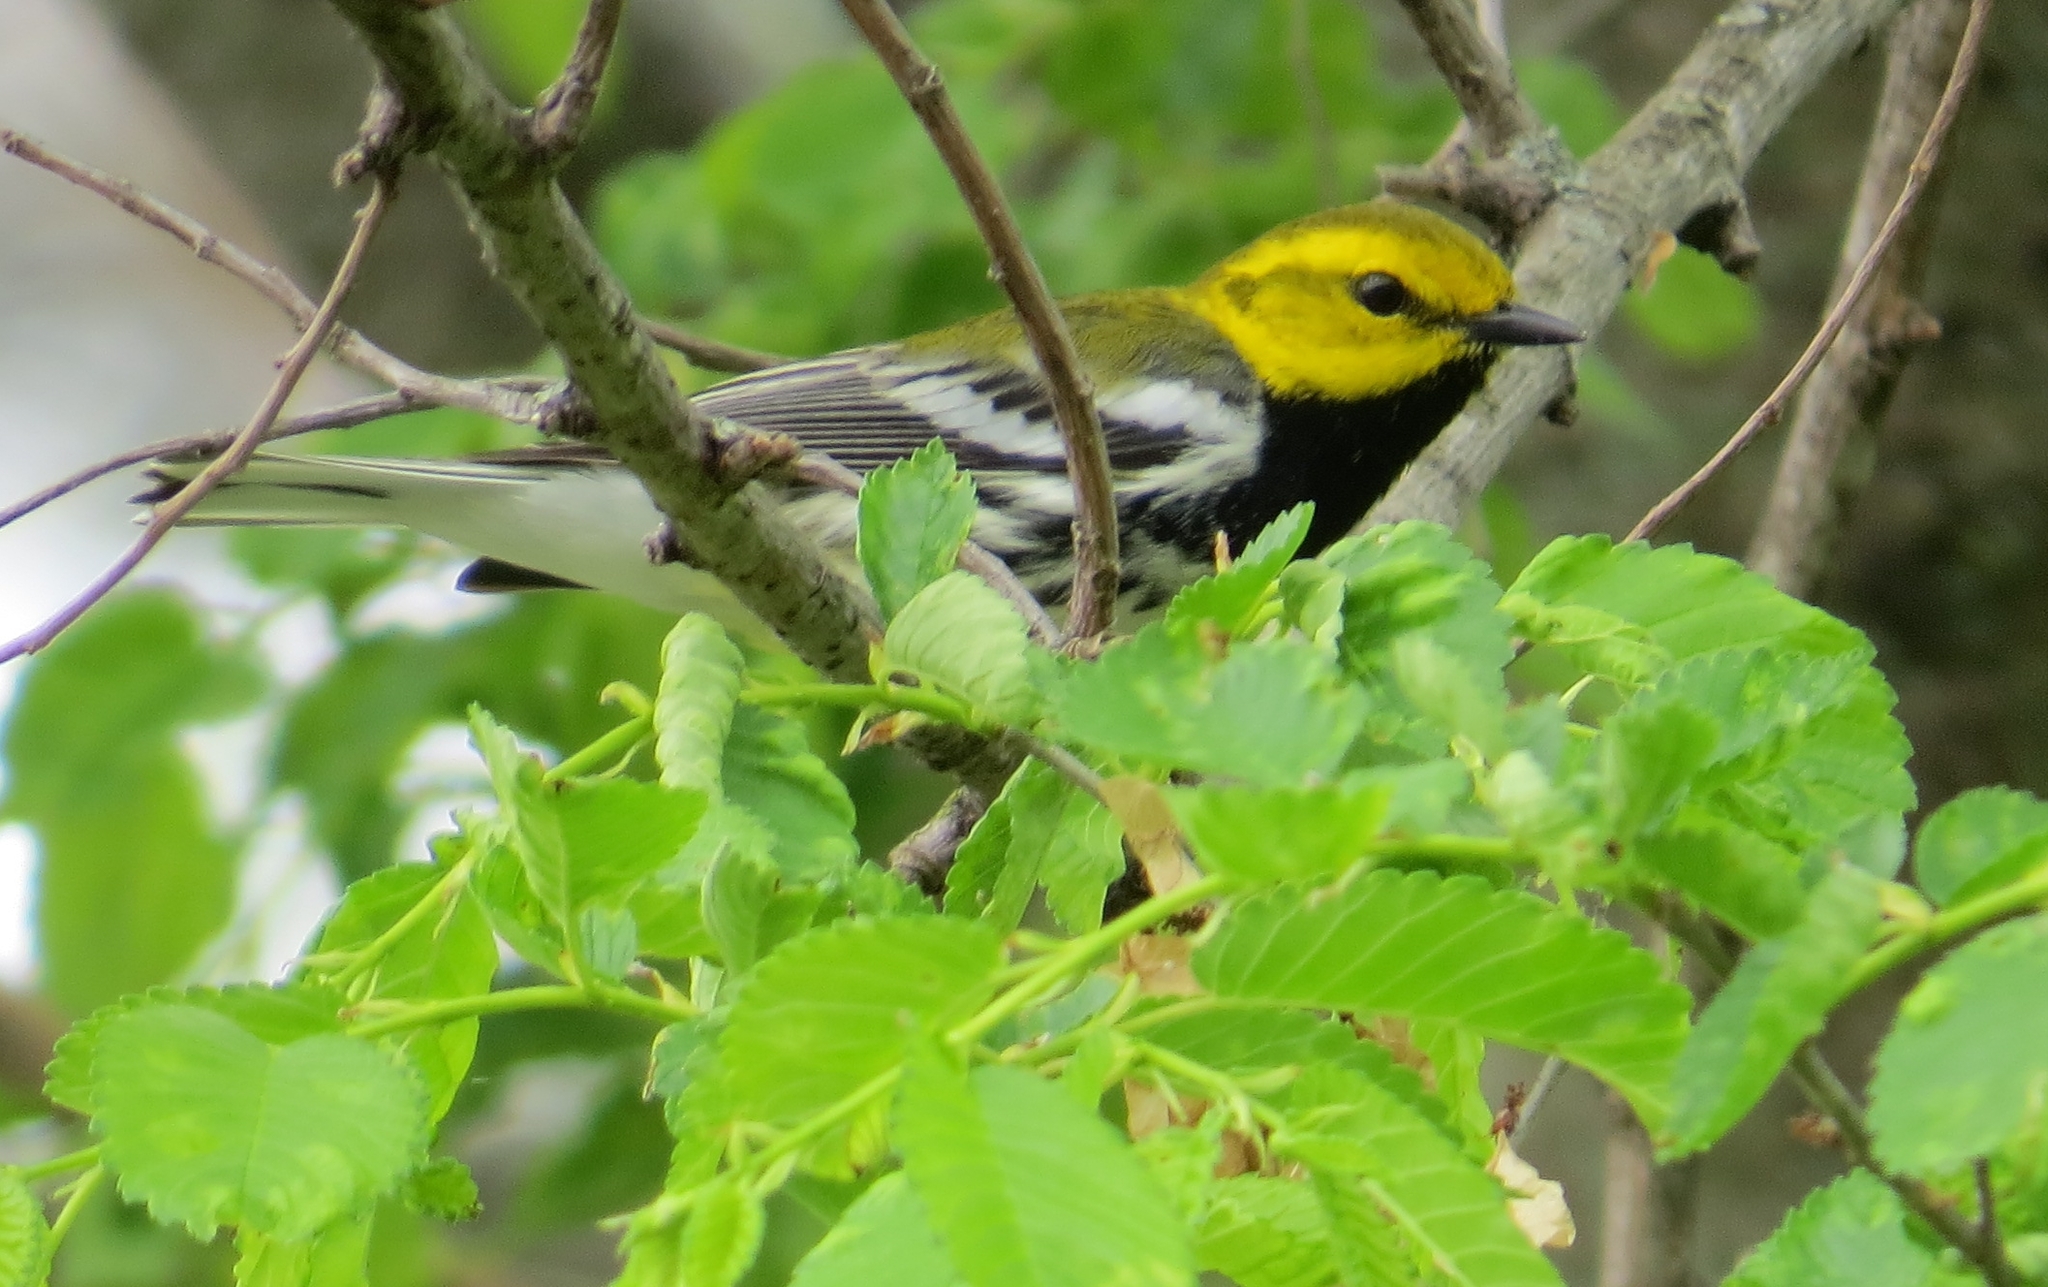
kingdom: Animalia
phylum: Chordata
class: Aves
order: Passeriformes
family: Parulidae
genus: Setophaga
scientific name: Setophaga virens
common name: Black-throated green warbler
